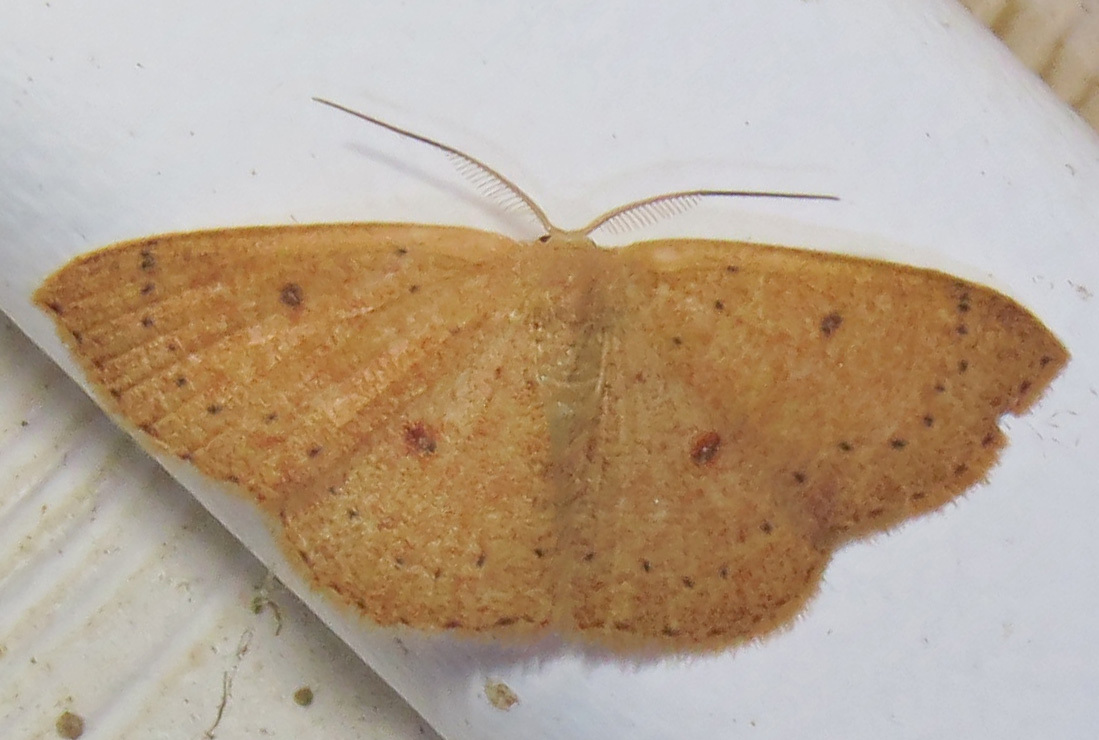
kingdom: Animalia
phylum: Arthropoda
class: Insecta
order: Lepidoptera
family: Geometridae
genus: Cyclophora
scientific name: Cyclophora packardi
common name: Packard's wave
